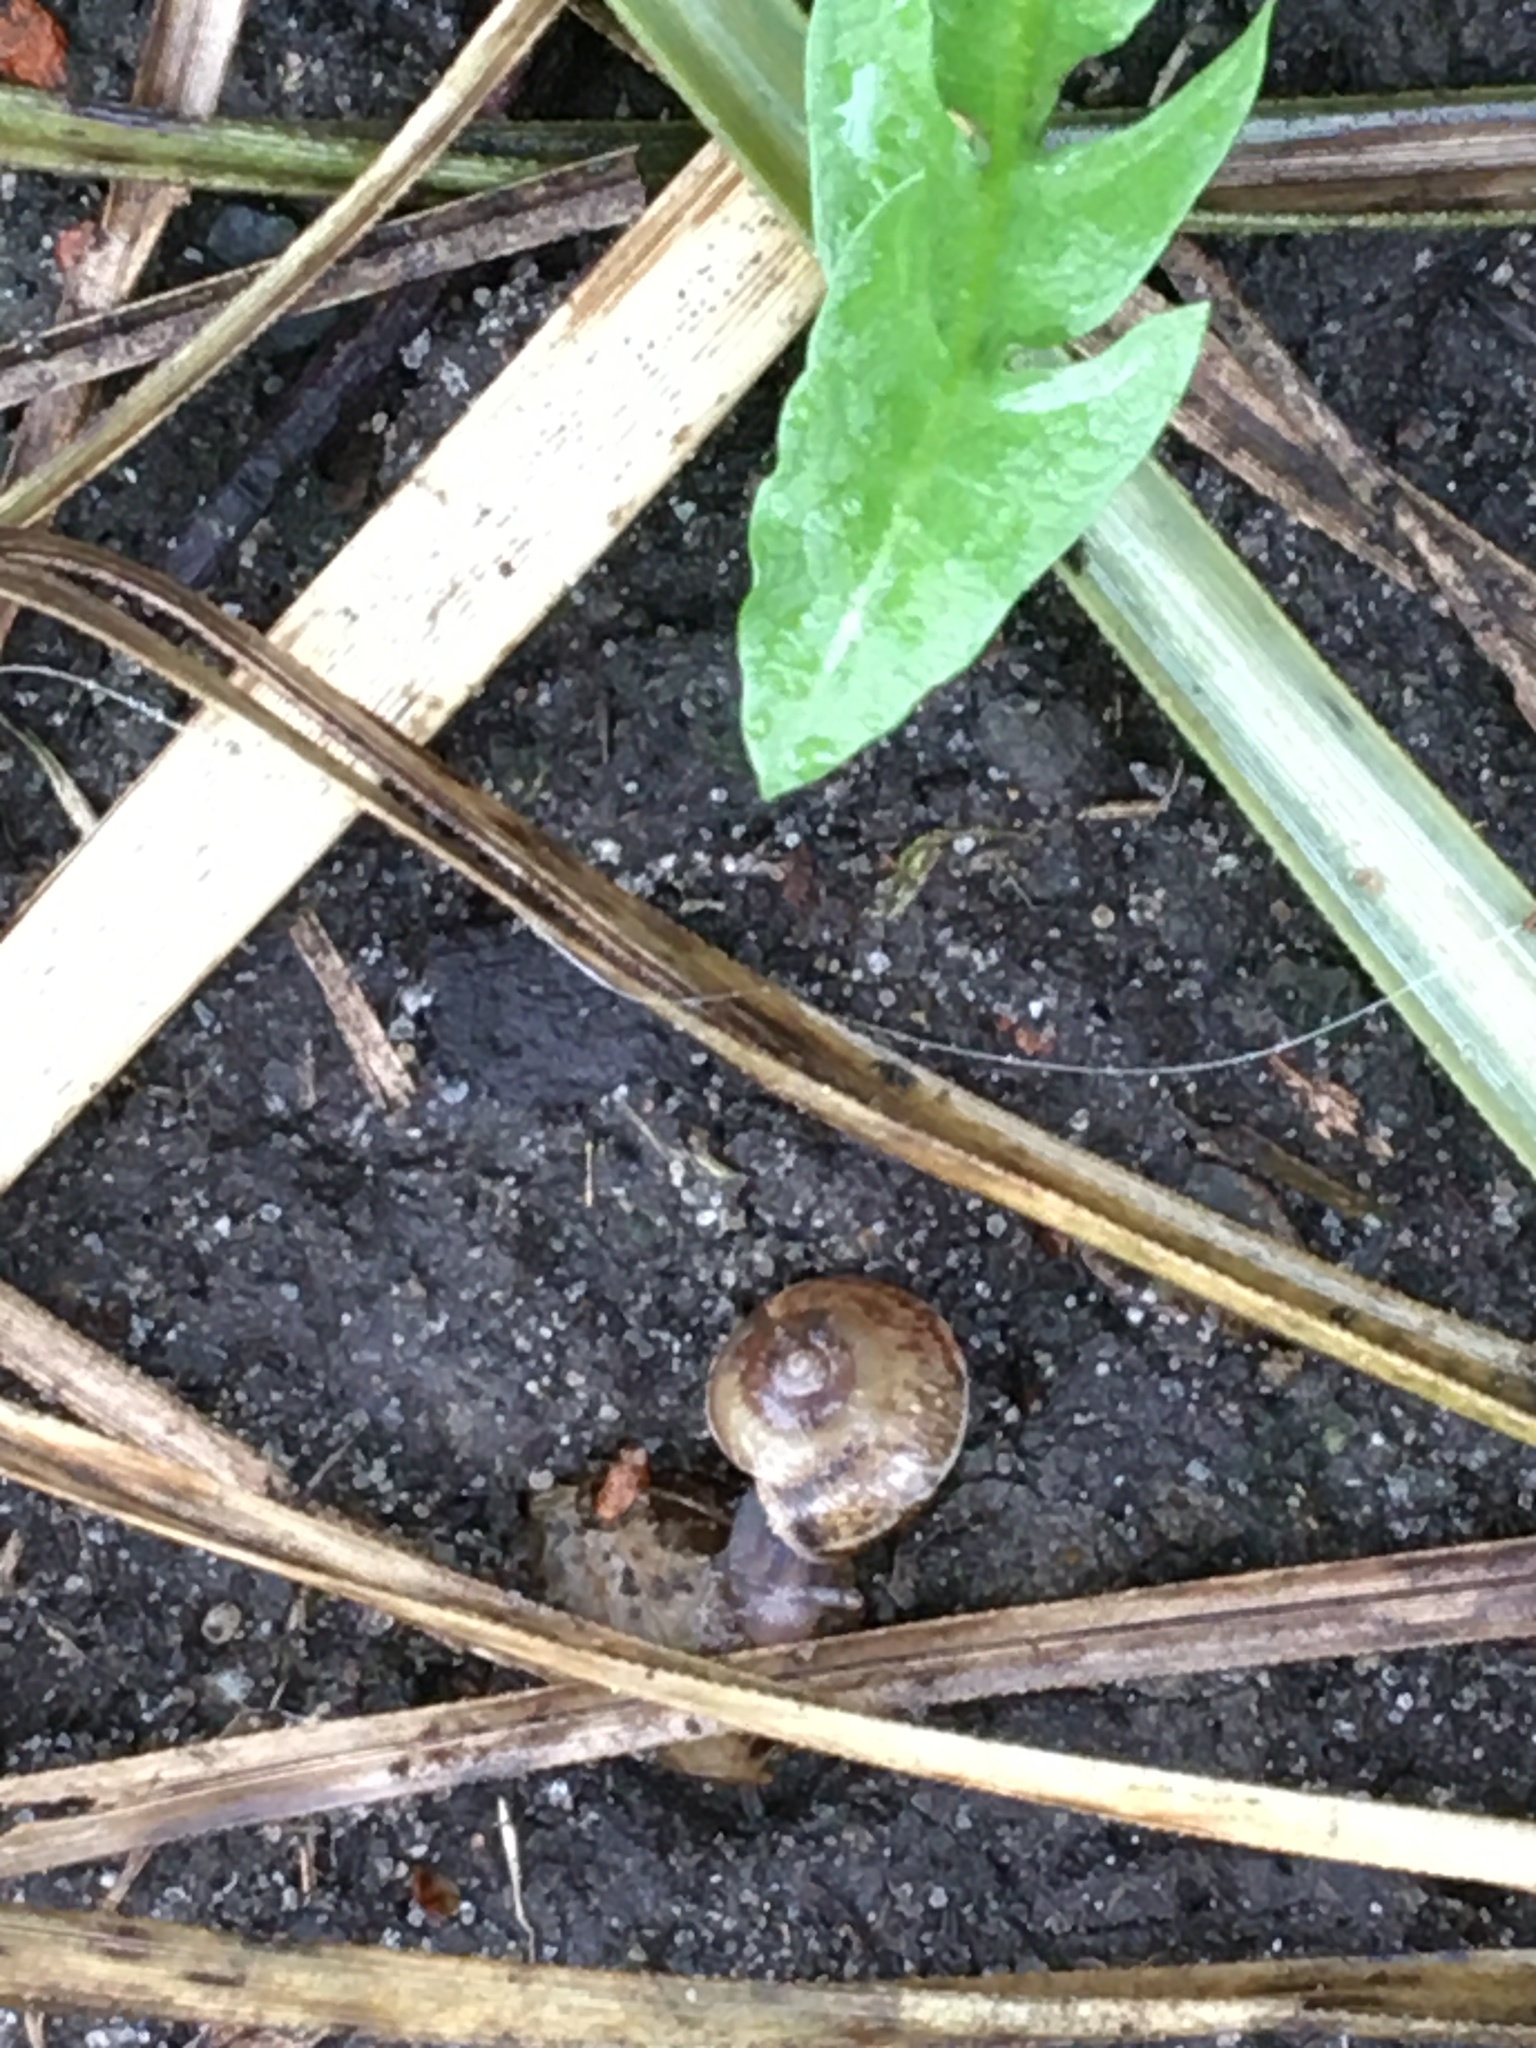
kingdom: Animalia
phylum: Mollusca
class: Gastropoda
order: Stylommatophora
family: Hygromiidae
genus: Hygromia
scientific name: Hygromia cinctella
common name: Girdled snail
